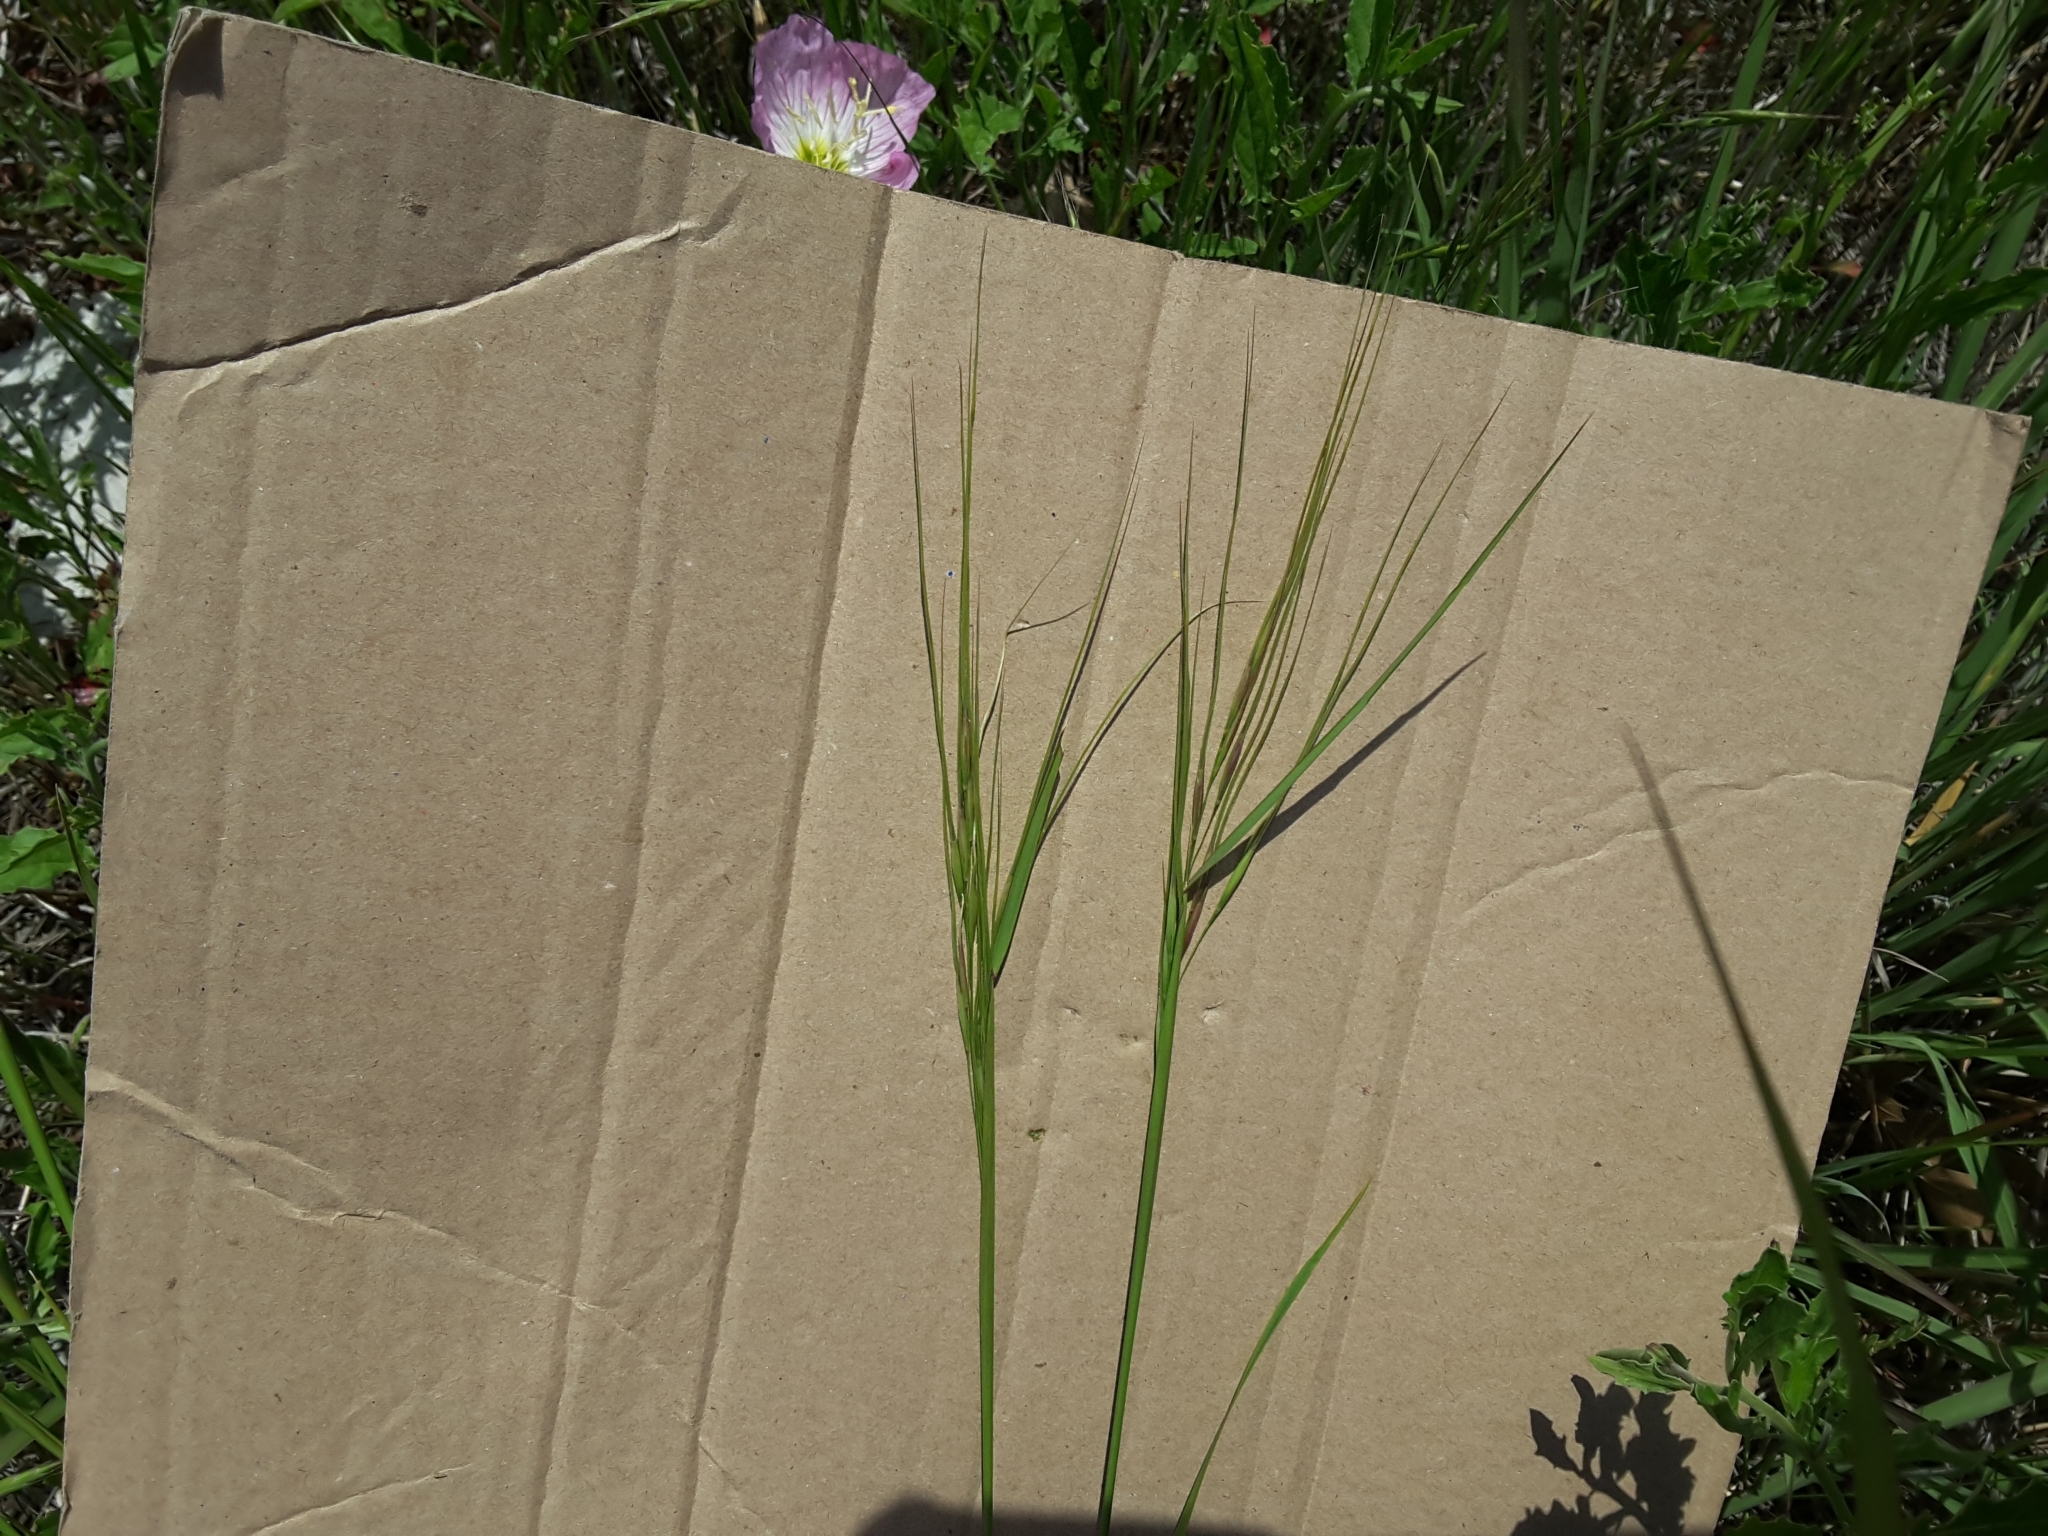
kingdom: Plantae
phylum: Tracheophyta
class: Liliopsida
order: Poales
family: Poaceae
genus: Nassella
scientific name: Nassella leucotricha
